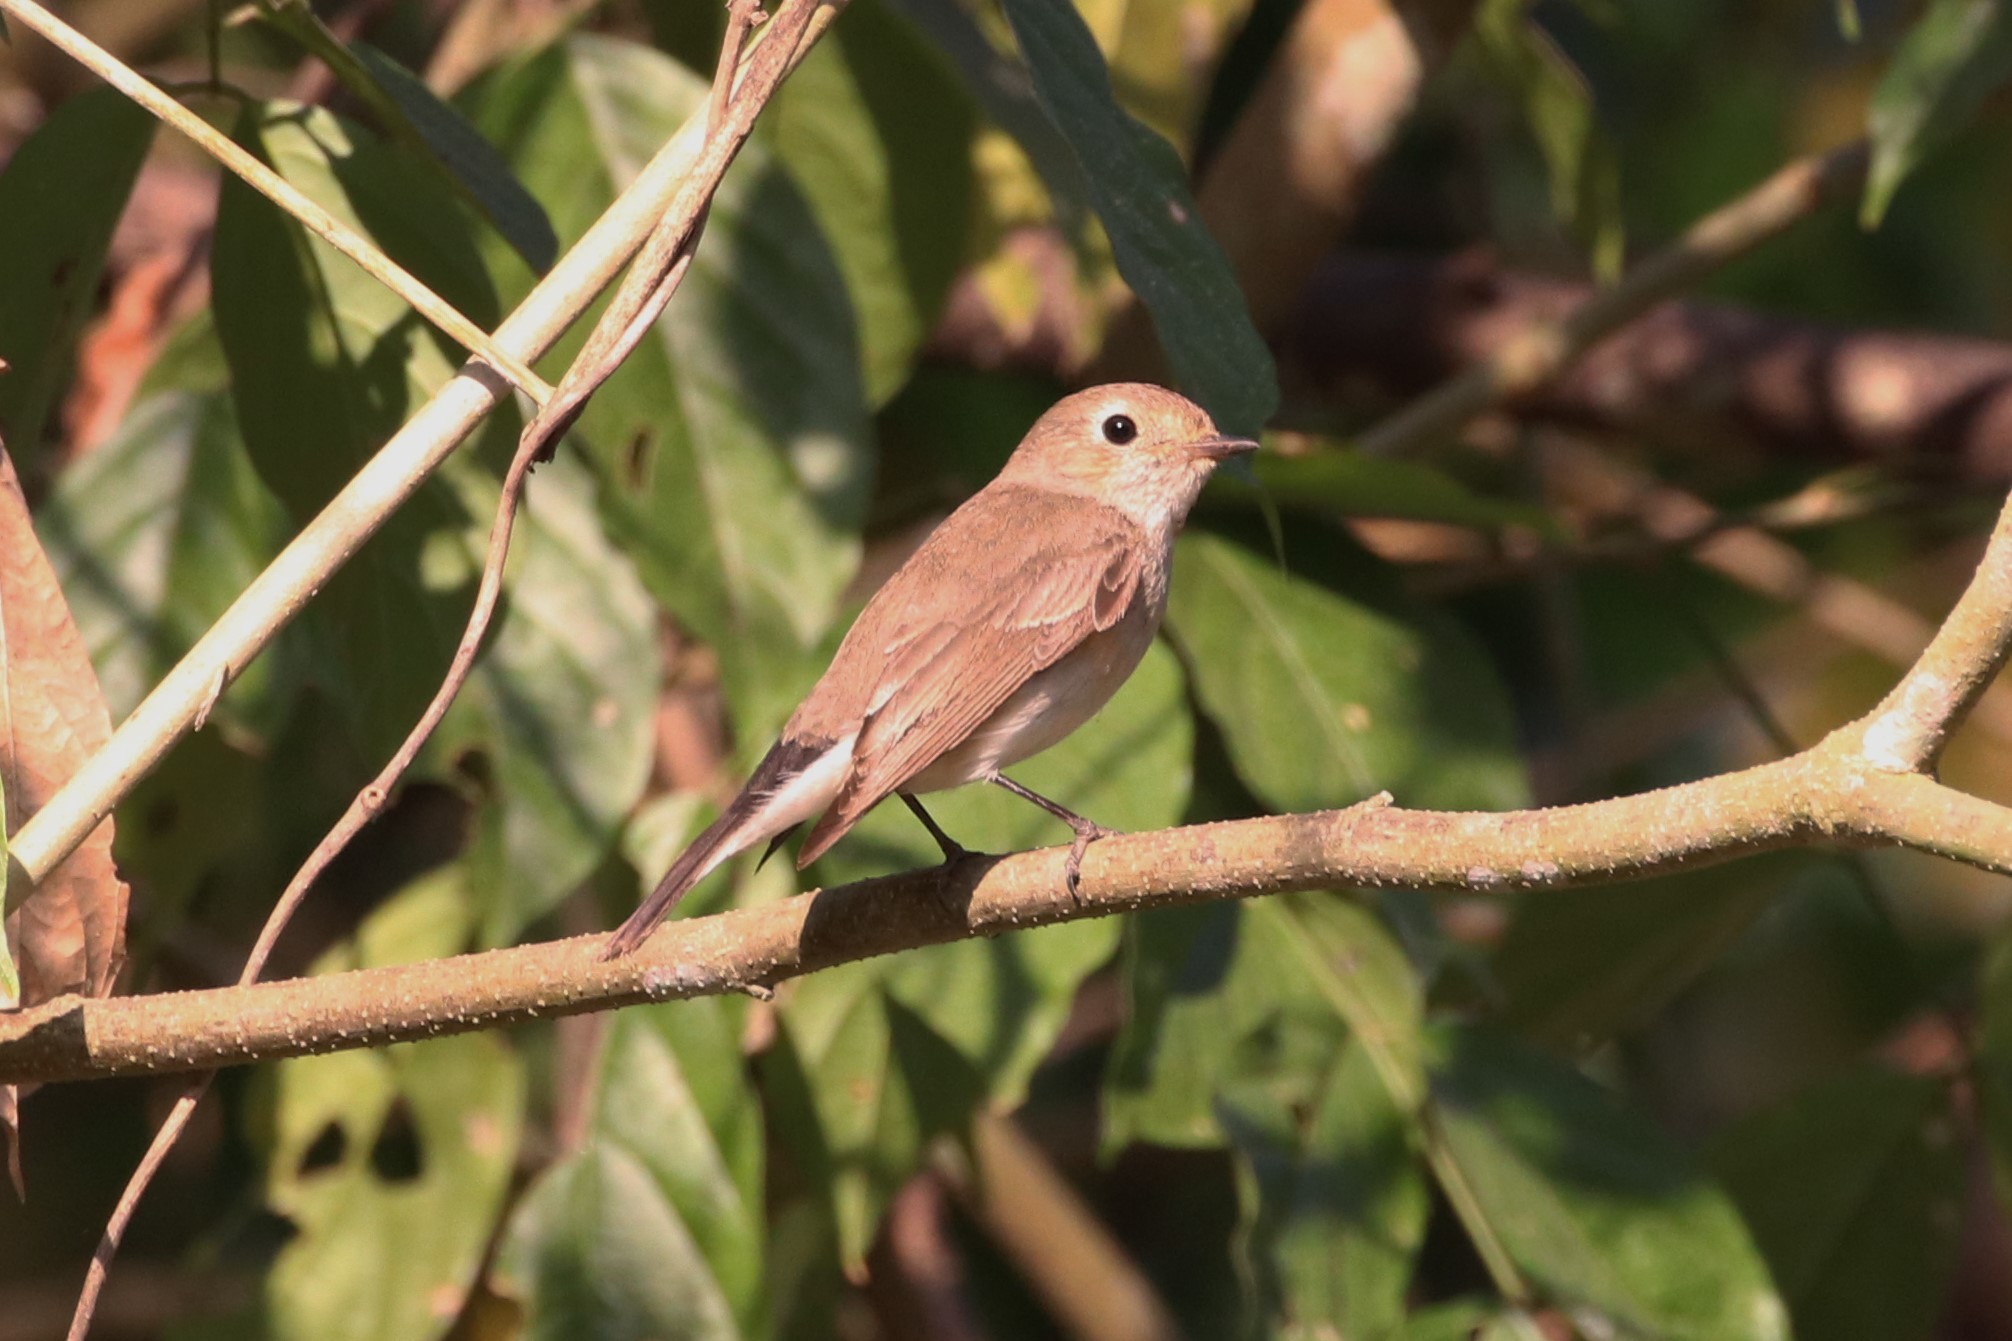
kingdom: Animalia
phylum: Chordata
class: Aves
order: Passeriformes
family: Muscicapidae
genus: Ficedula
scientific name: Ficedula albicilla
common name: Taiga flycatcher
